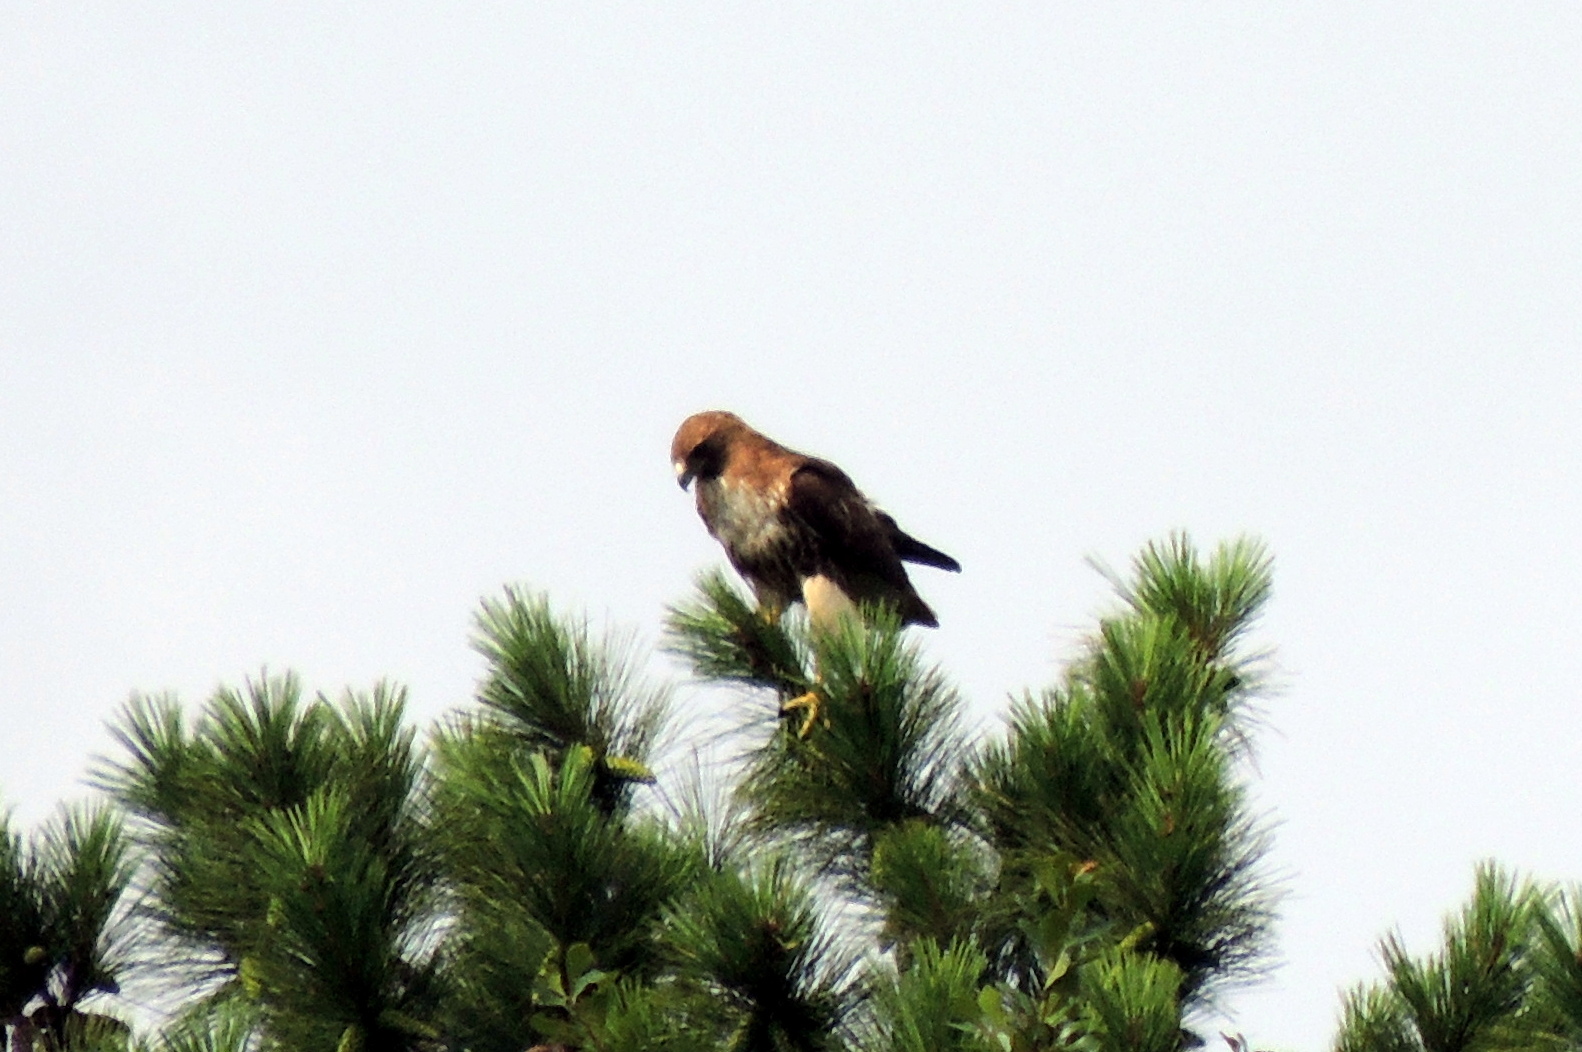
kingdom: Animalia
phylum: Chordata
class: Aves
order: Accipitriformes
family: Accipitridae
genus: Buteo
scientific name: Buteo jamaicensis
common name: Red-tailed hawk
